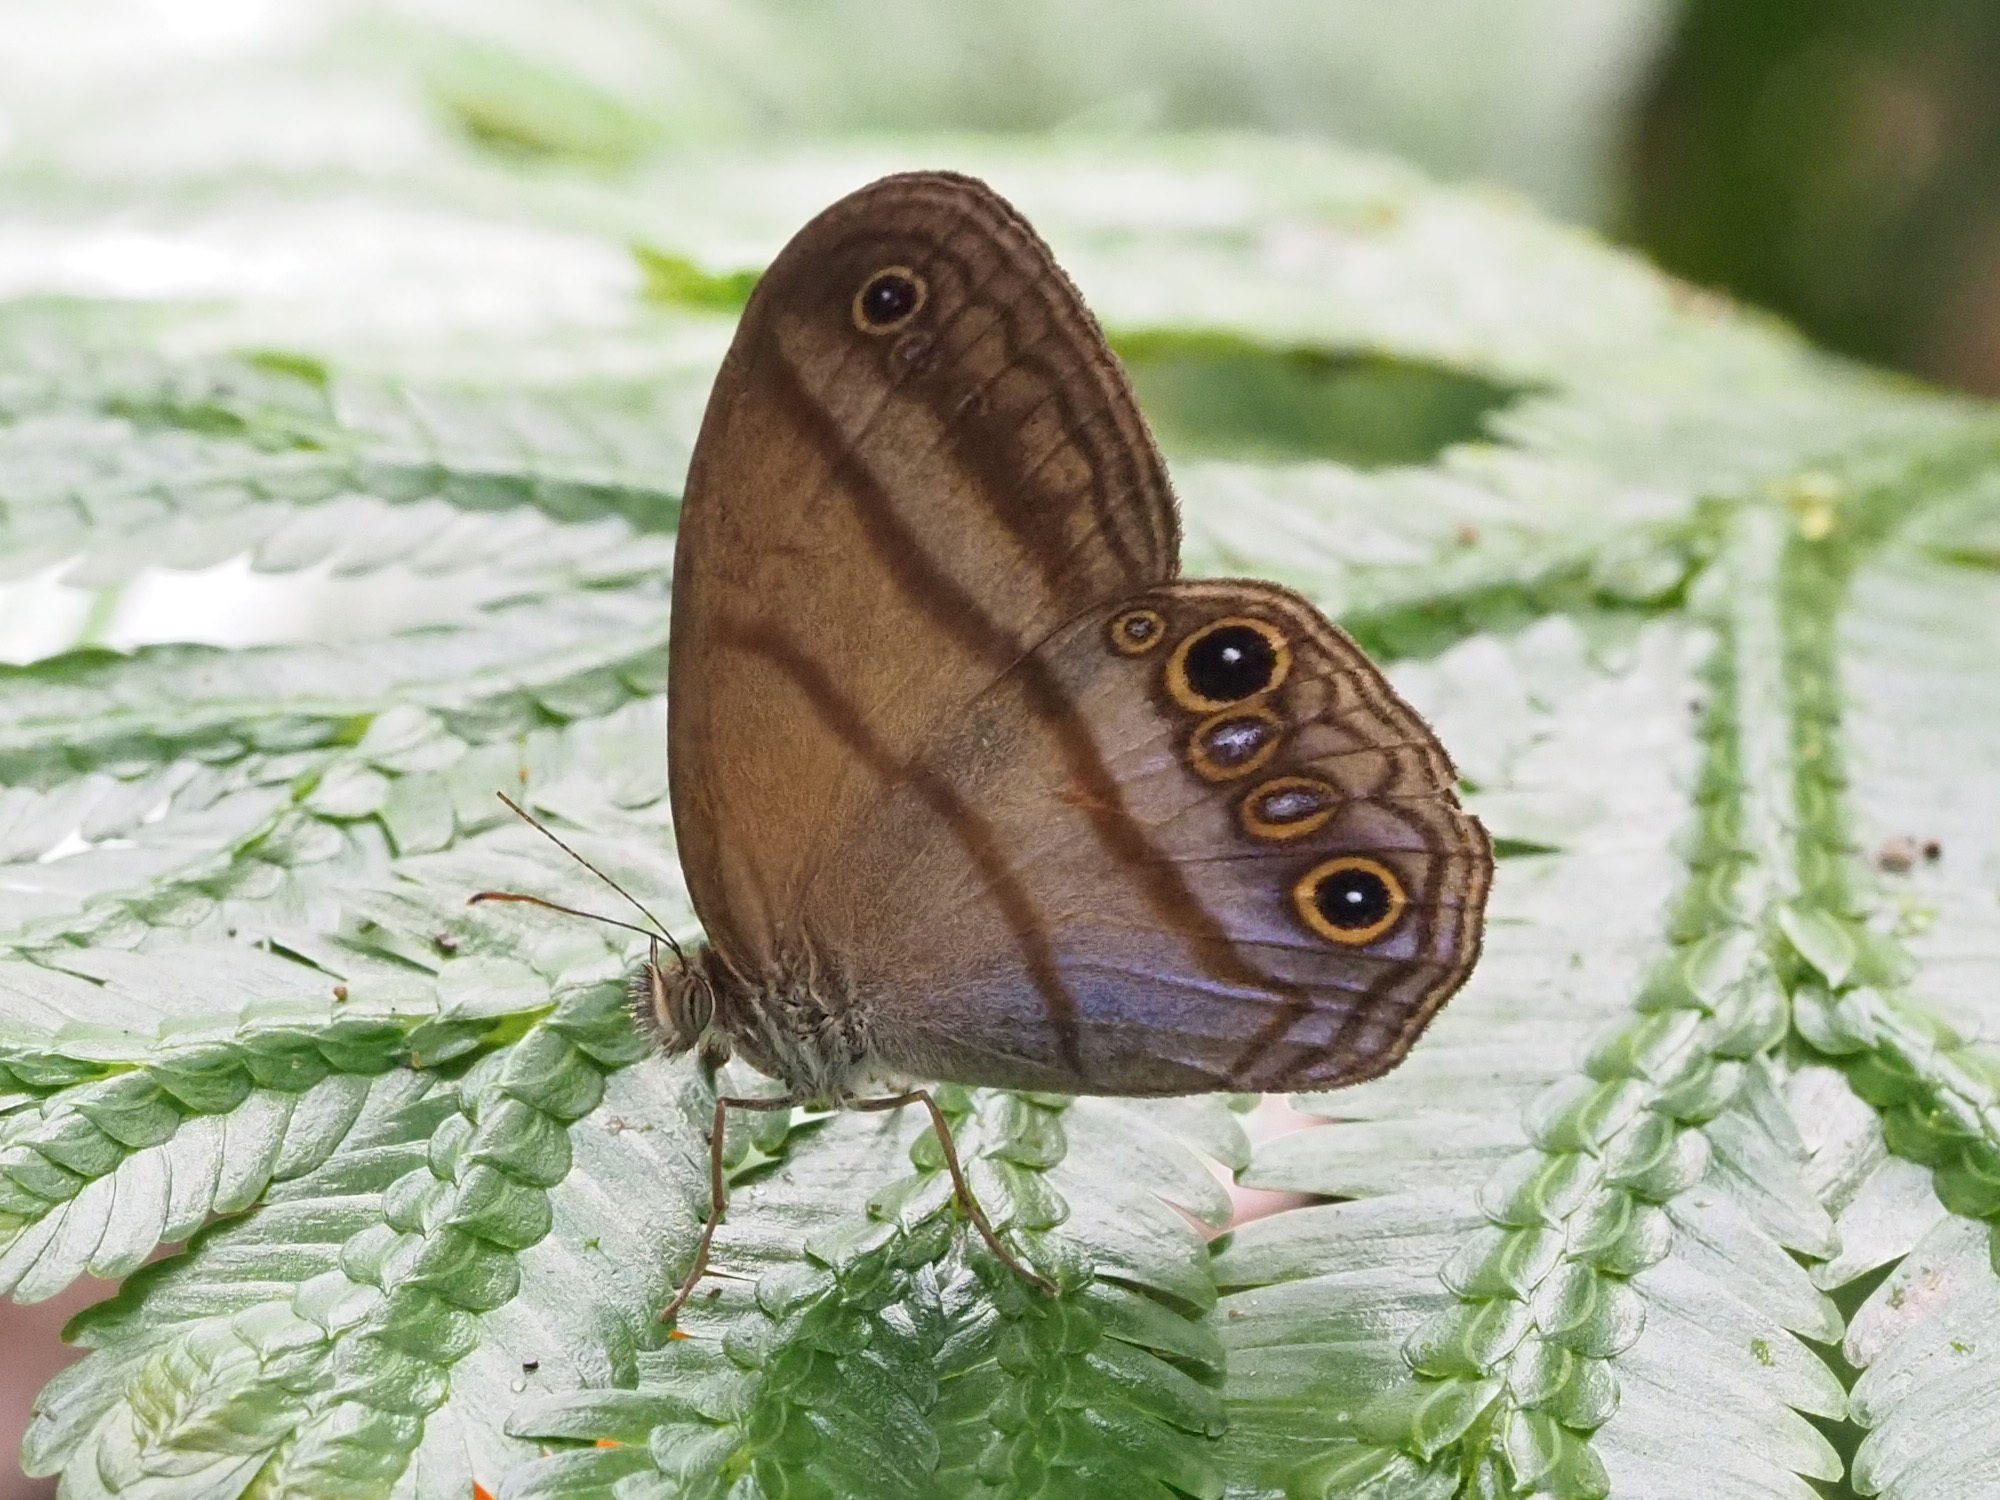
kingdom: Animalia
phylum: Arthropoda
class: Insecta
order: Lepidoptera
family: Nymphalidae
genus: Amiga
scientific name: Amiga arnaca
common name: Blue-topped satyr
